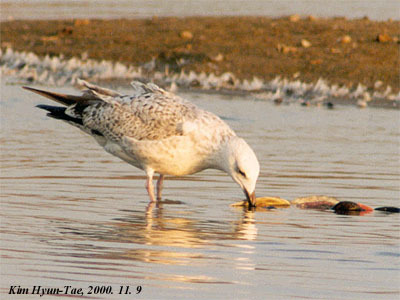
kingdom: Animalia
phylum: Chordata
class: Aves
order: Charadriiformes
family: Laridae
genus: Larus
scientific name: Larus vegae
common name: Vega gull
